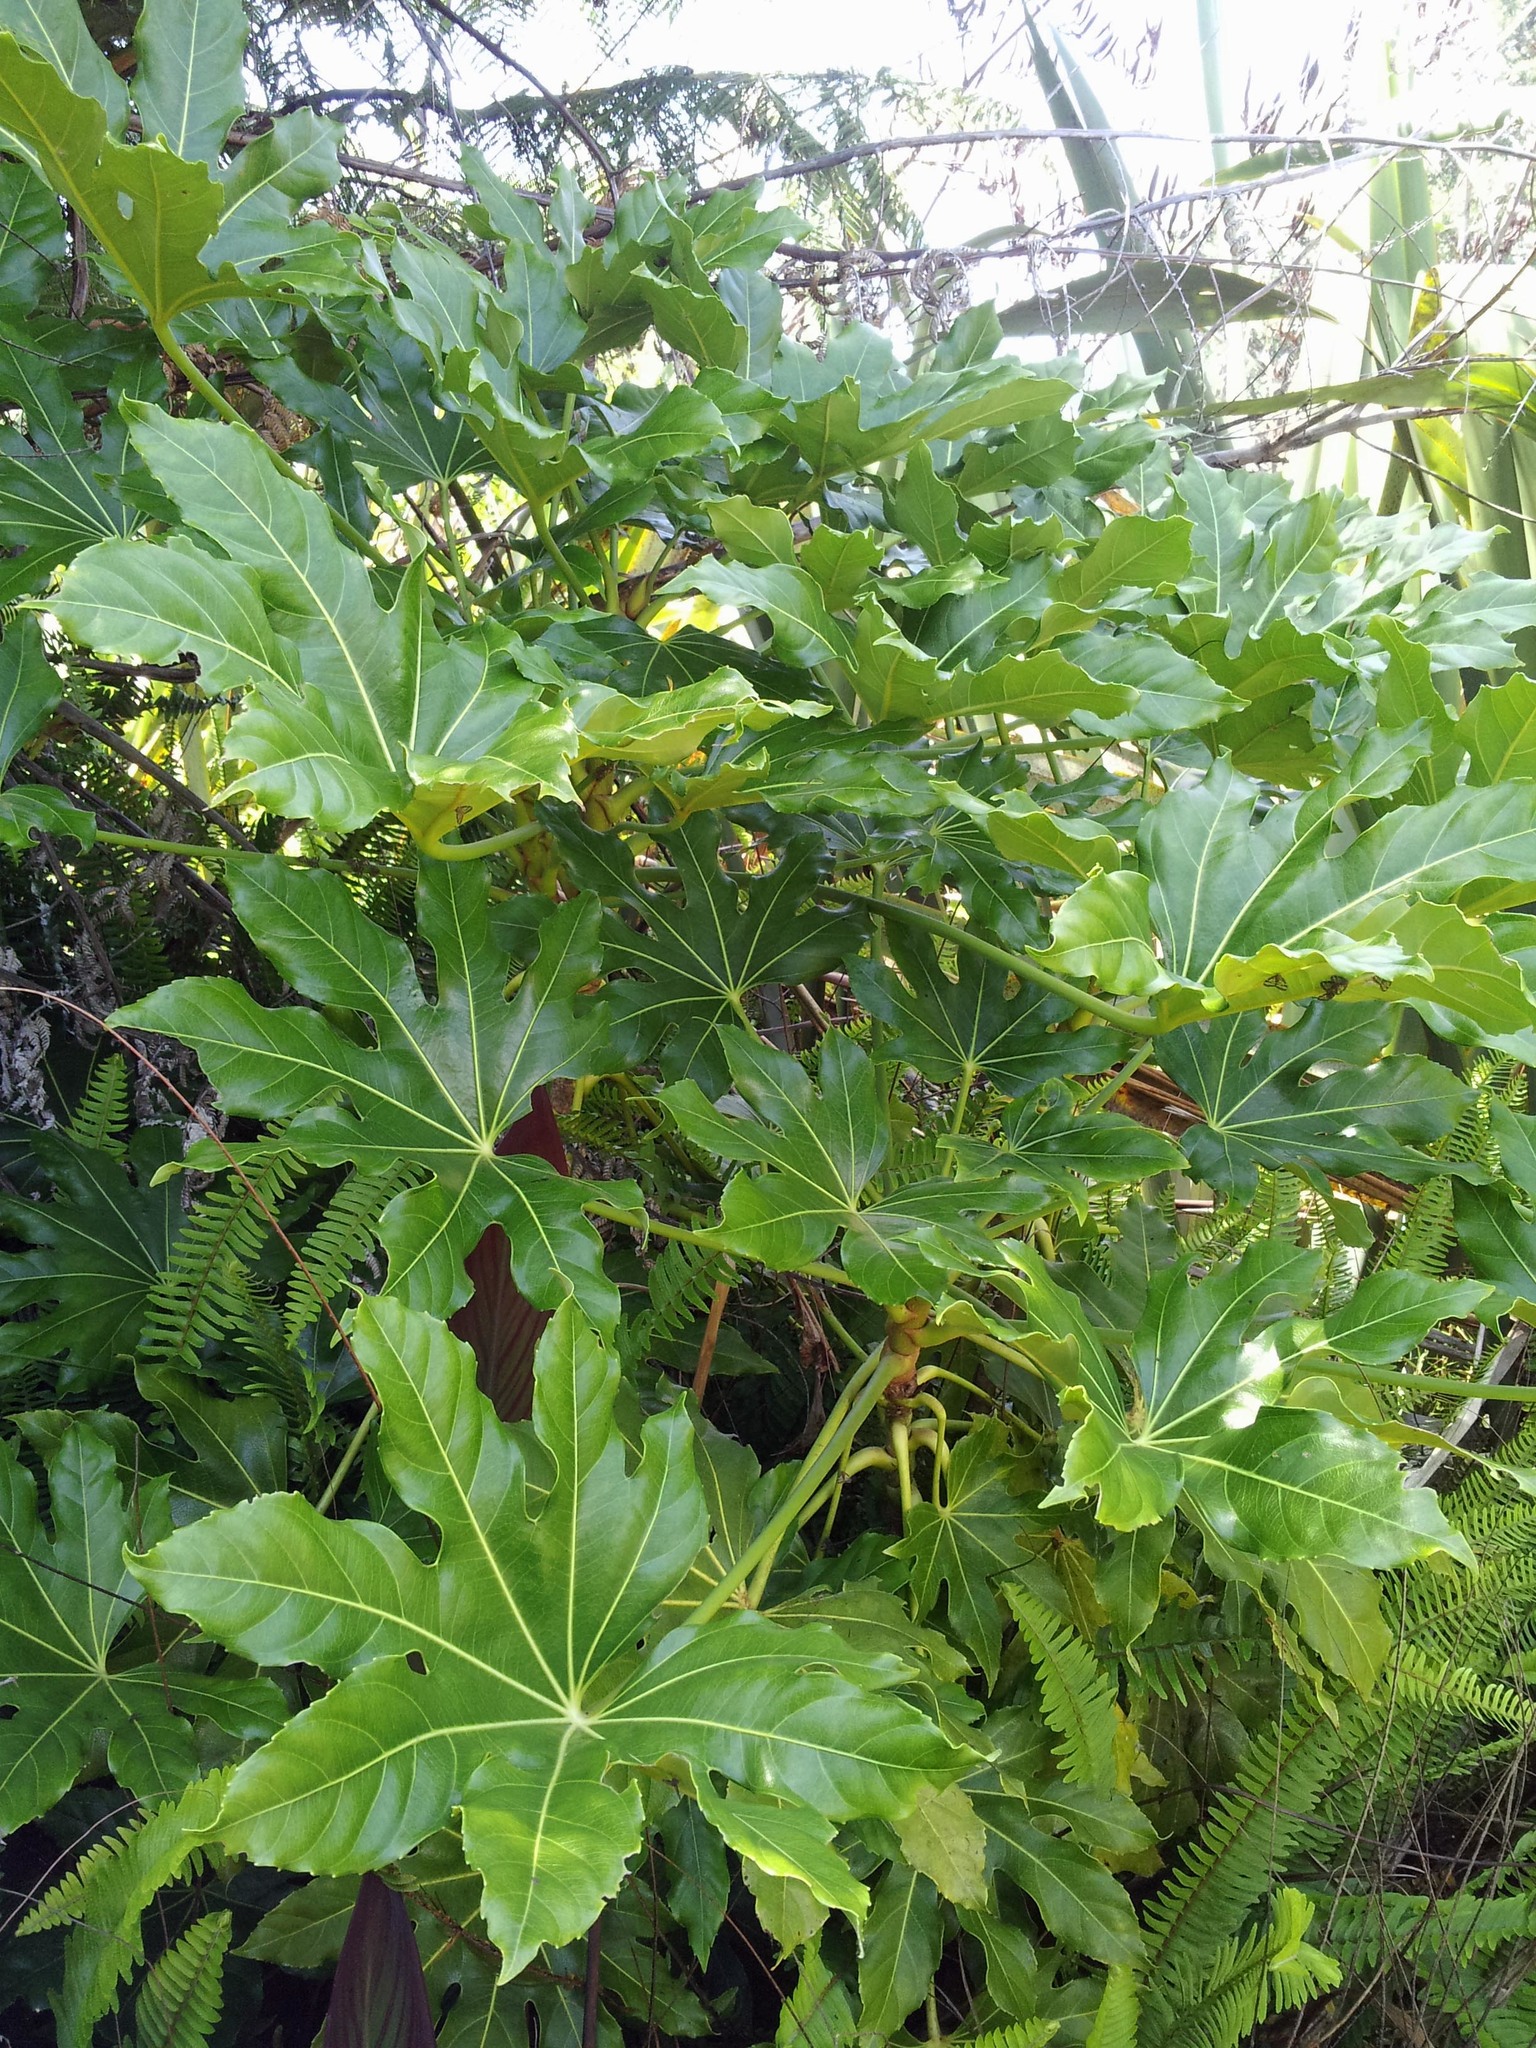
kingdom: Plantae
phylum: Tracheophyta
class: Magnoliopsida
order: Apiales
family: Araliaceae
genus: Fatsia
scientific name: Fatsia japonica
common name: Fatsia
